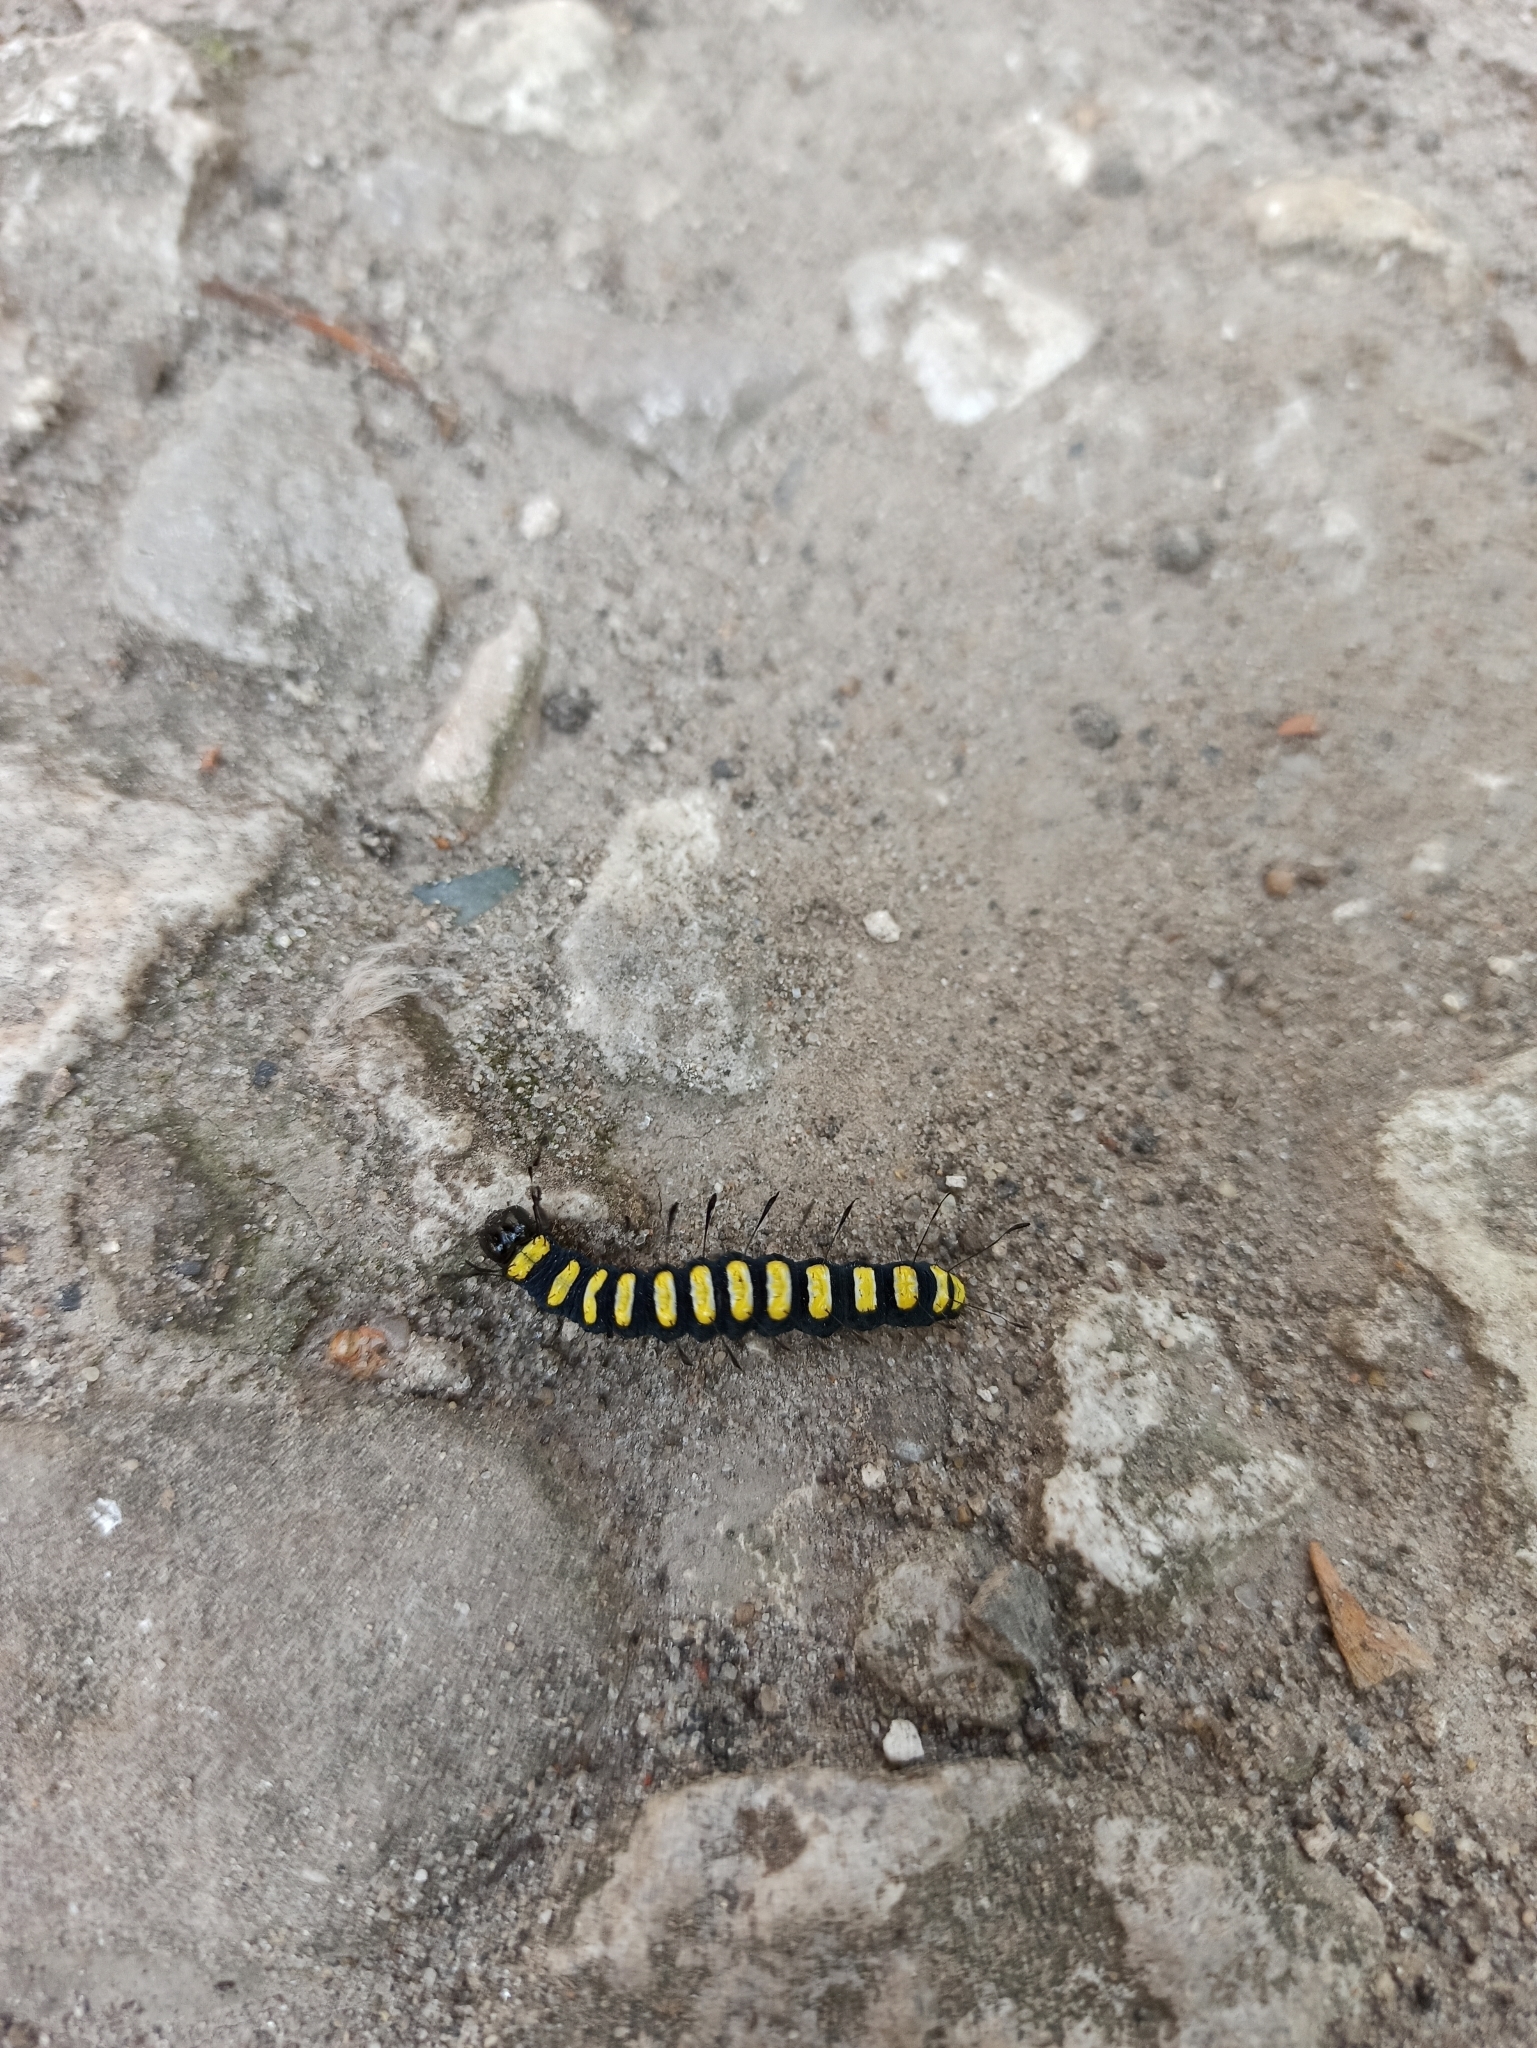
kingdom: Animalia
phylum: Arthropoda
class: Insecta
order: Lepidoptera
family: Noctuidae
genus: Acronicta
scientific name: Acronicta alni
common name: Alder moth
